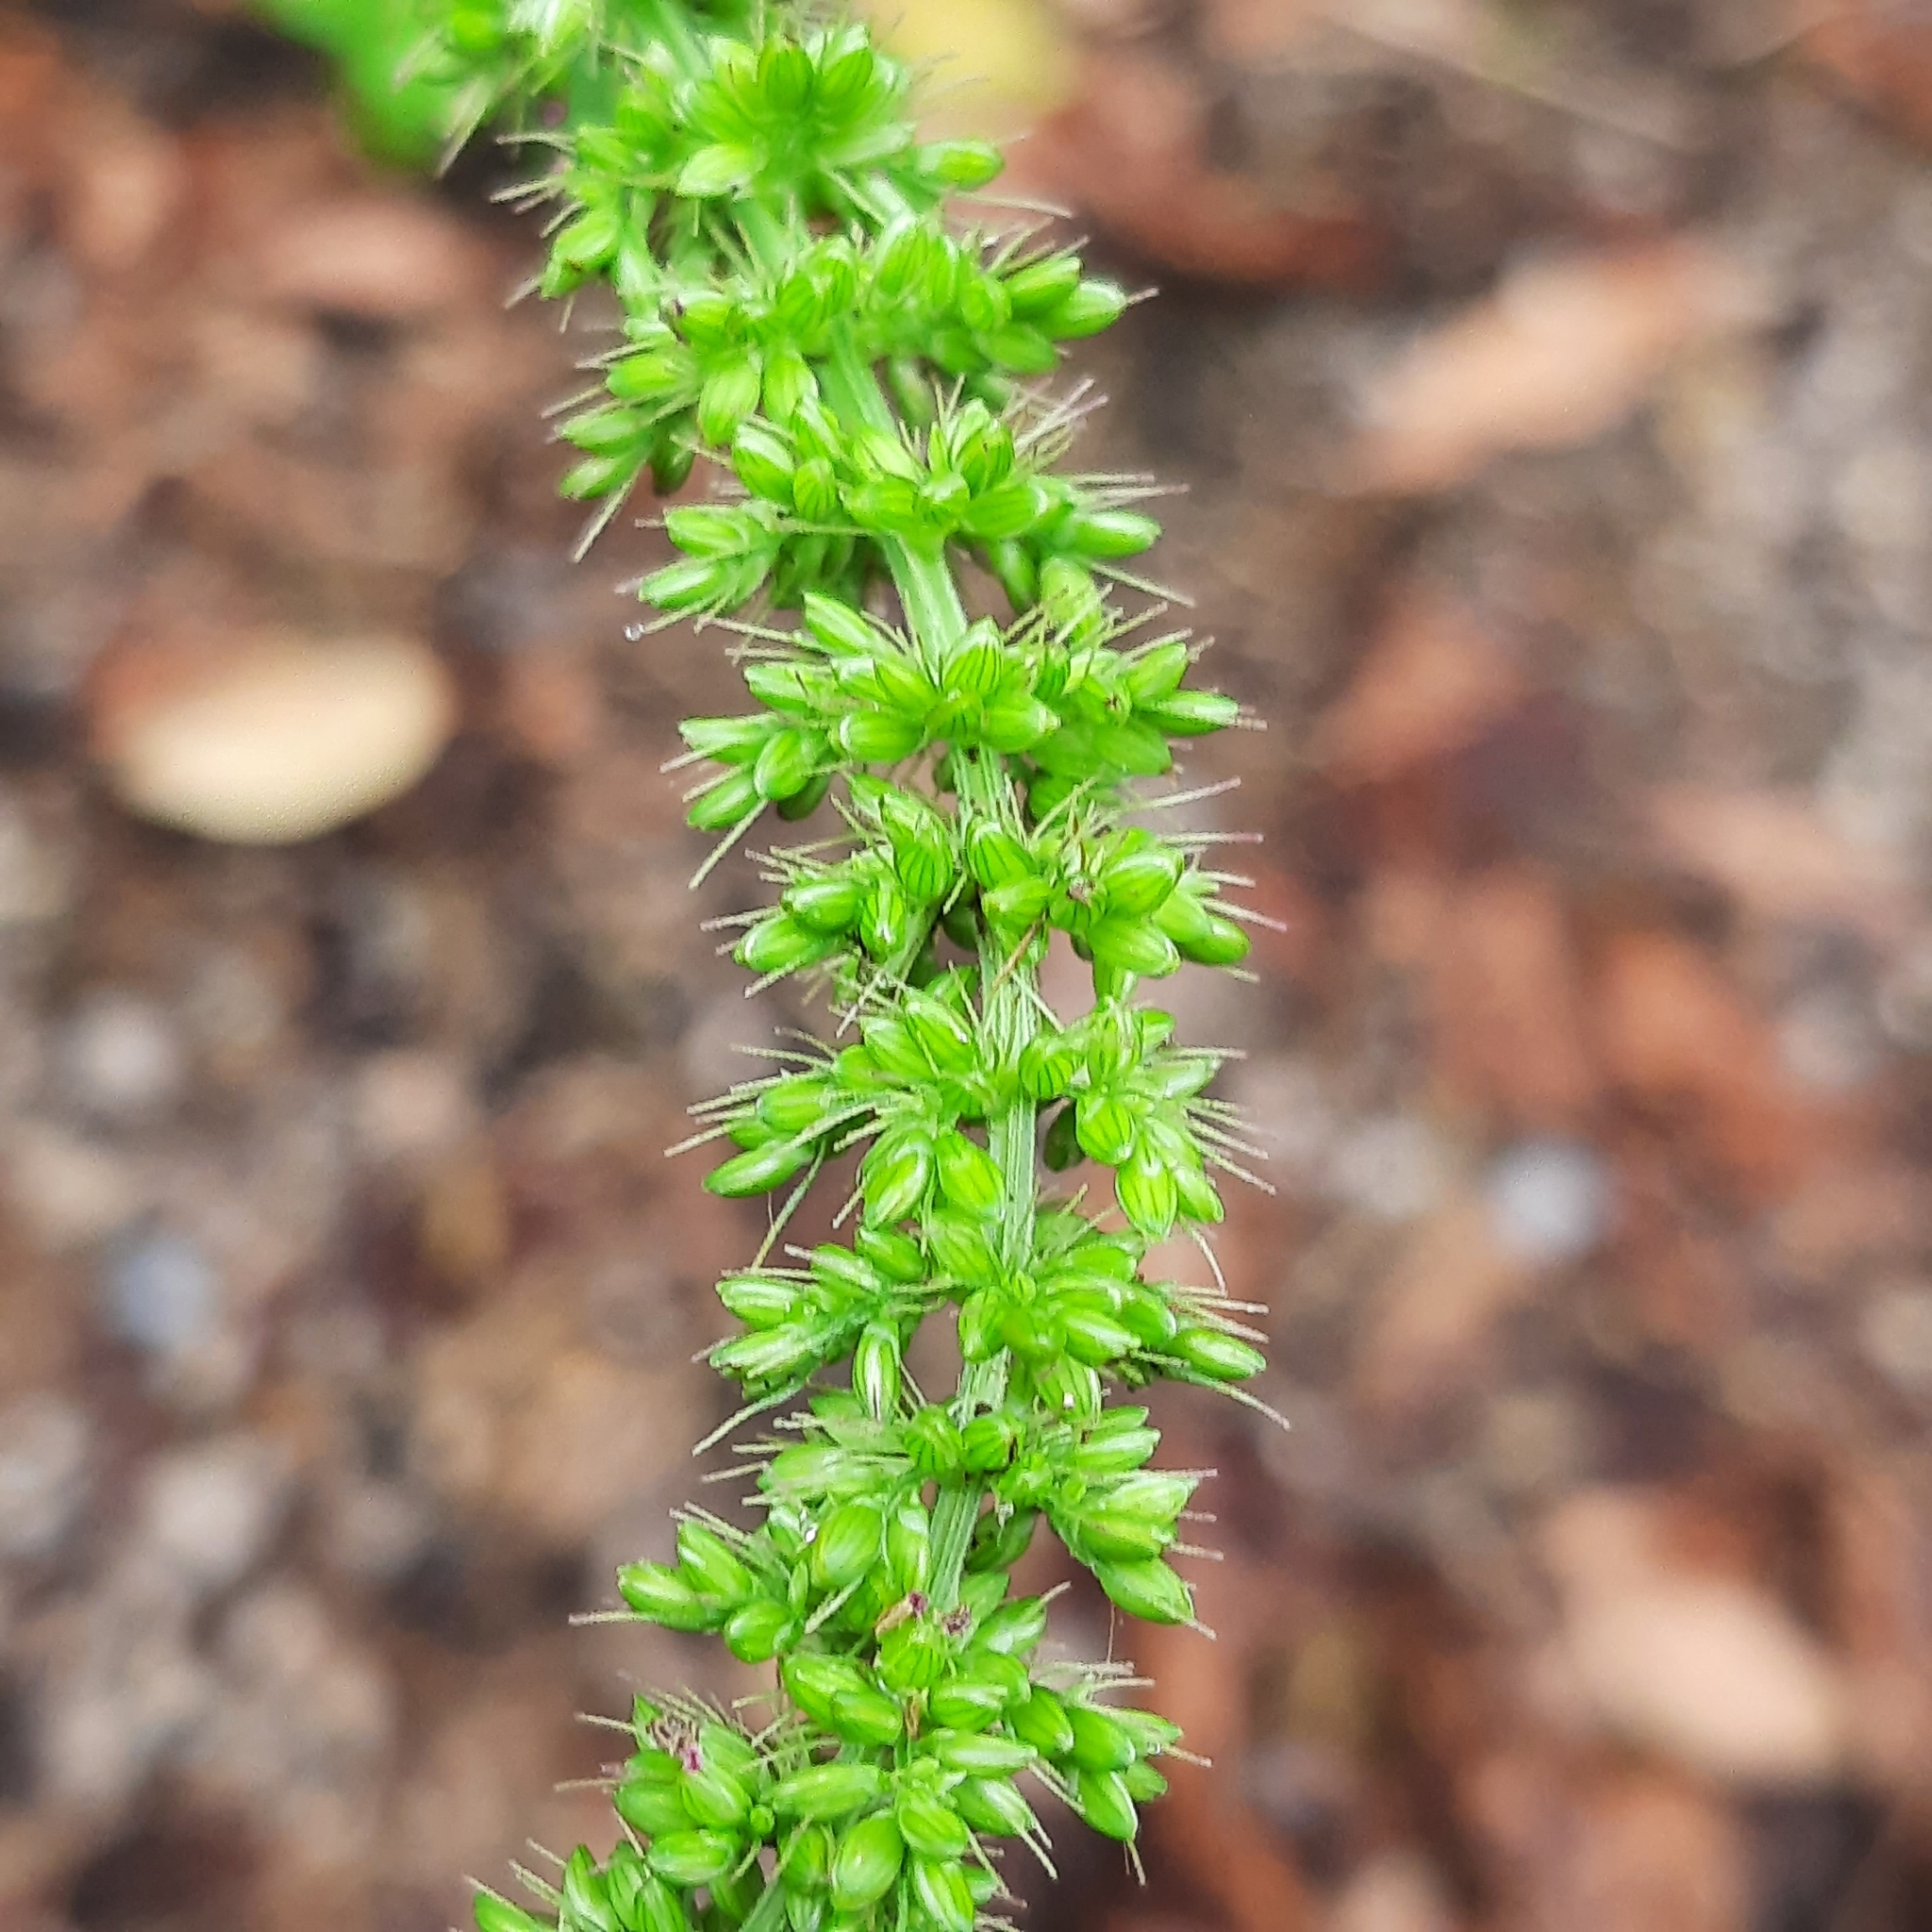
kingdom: Plantae
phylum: Tracheophyta
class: Liliopsida
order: Poales
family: Poaceae
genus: Setaria
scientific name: Setaria verticillata
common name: Hooked bristlegrass
